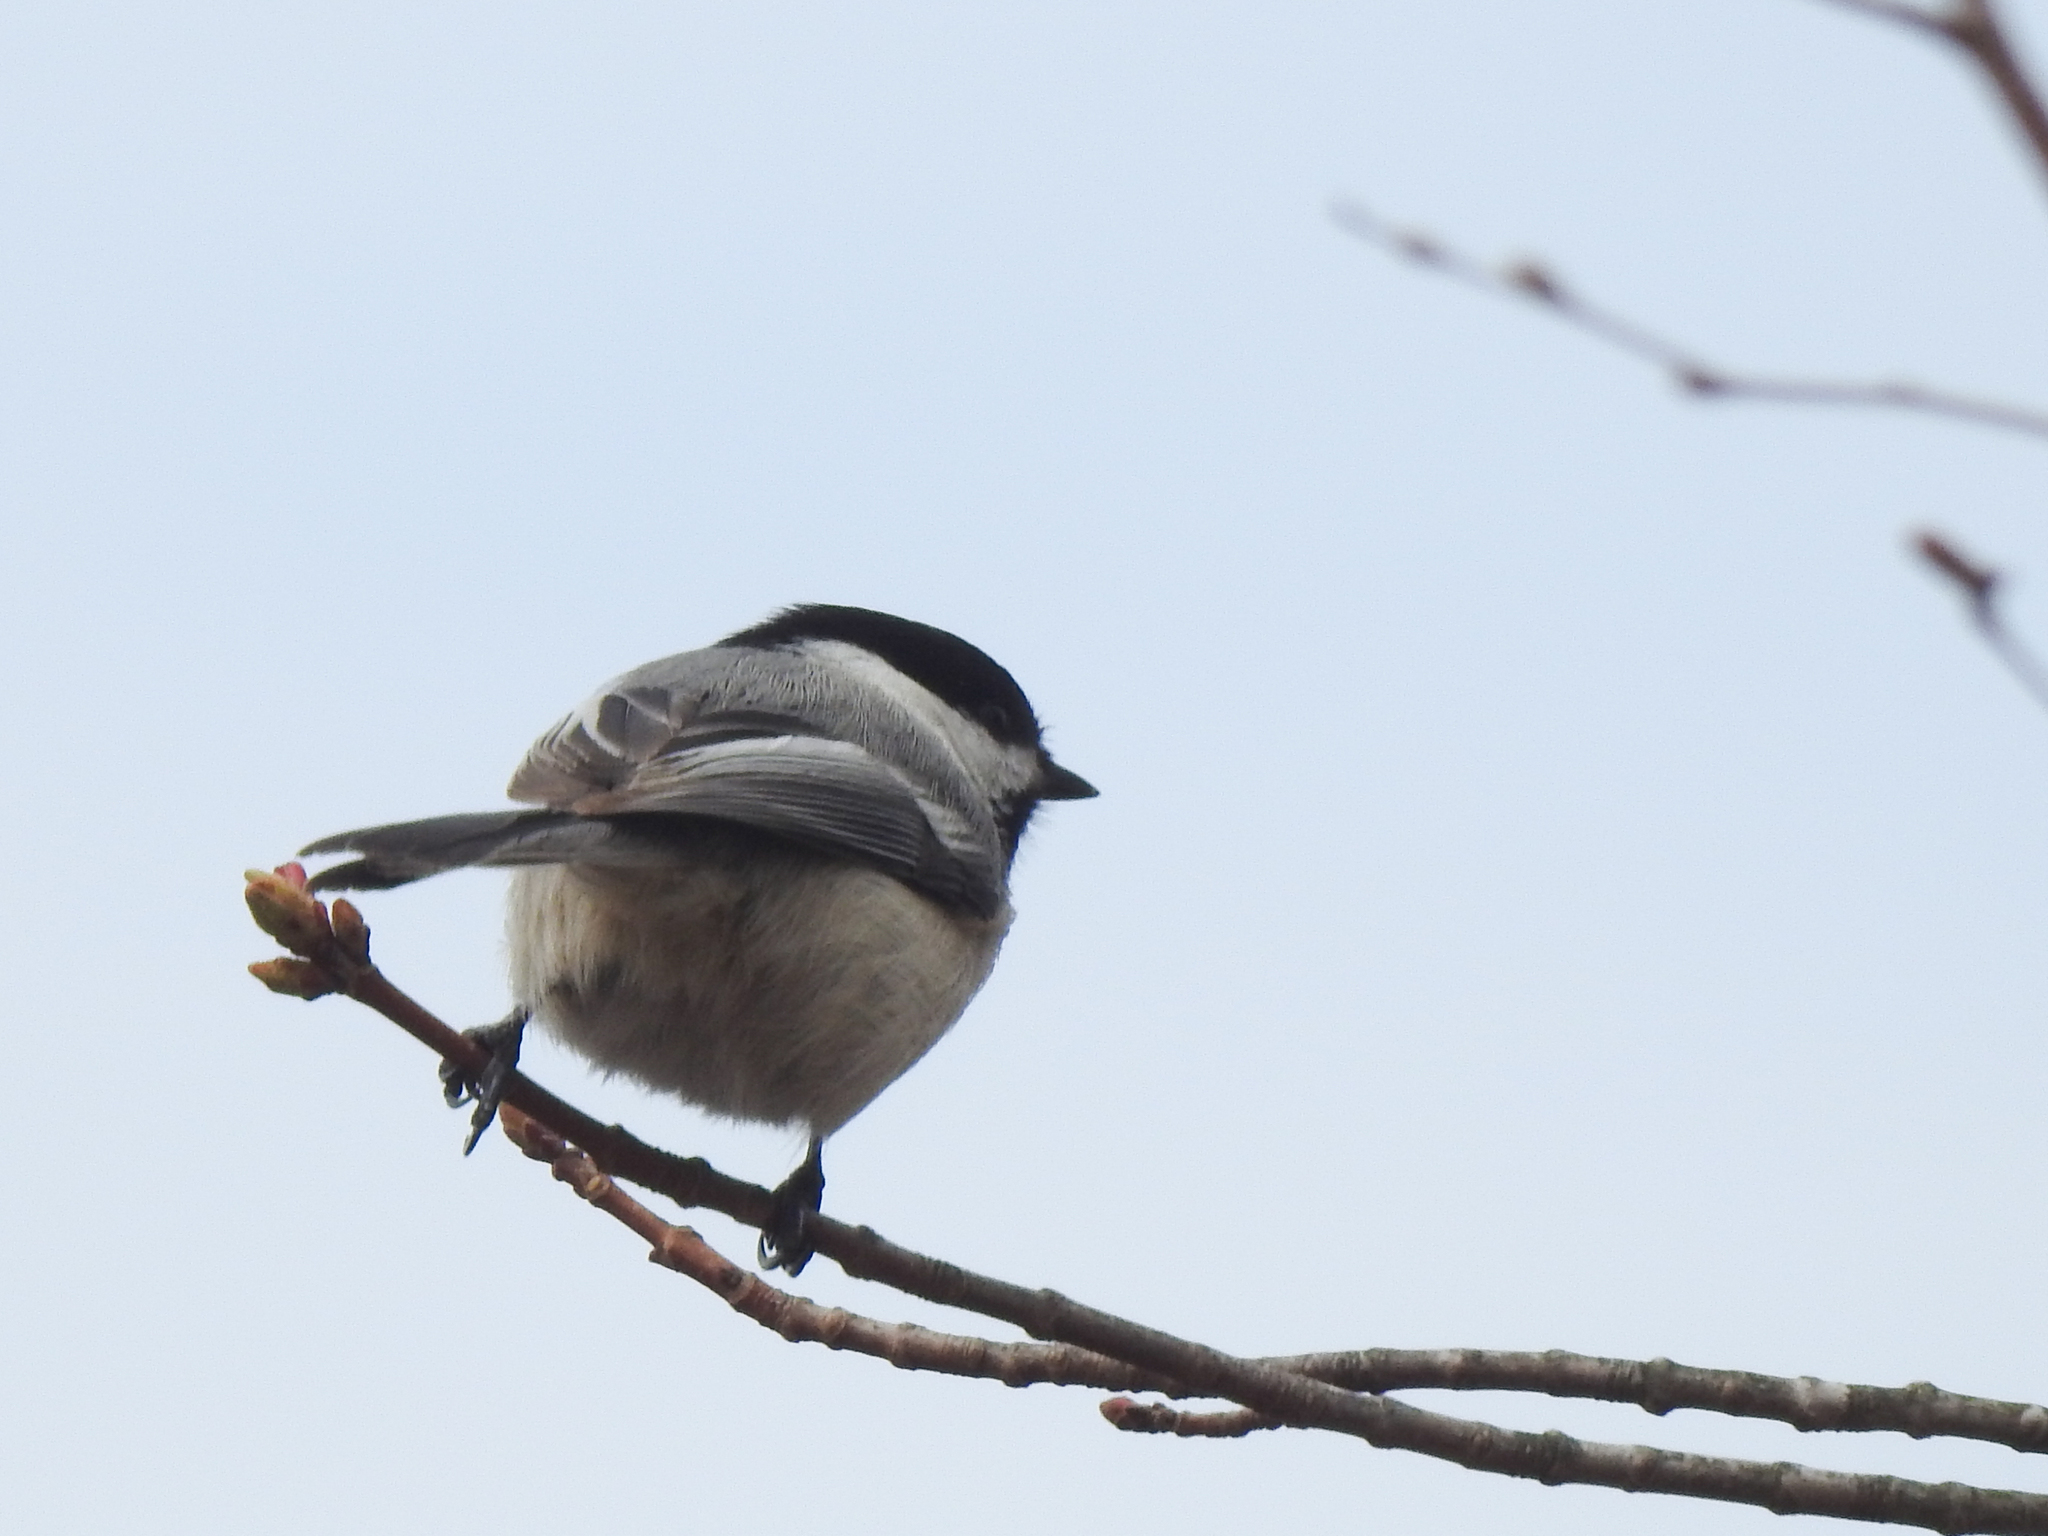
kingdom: Animalia
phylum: Chordata
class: Aves
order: Passeriformes
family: Paridae
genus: Poecile
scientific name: Poecile atricapillus
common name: Black-capped chickadee
